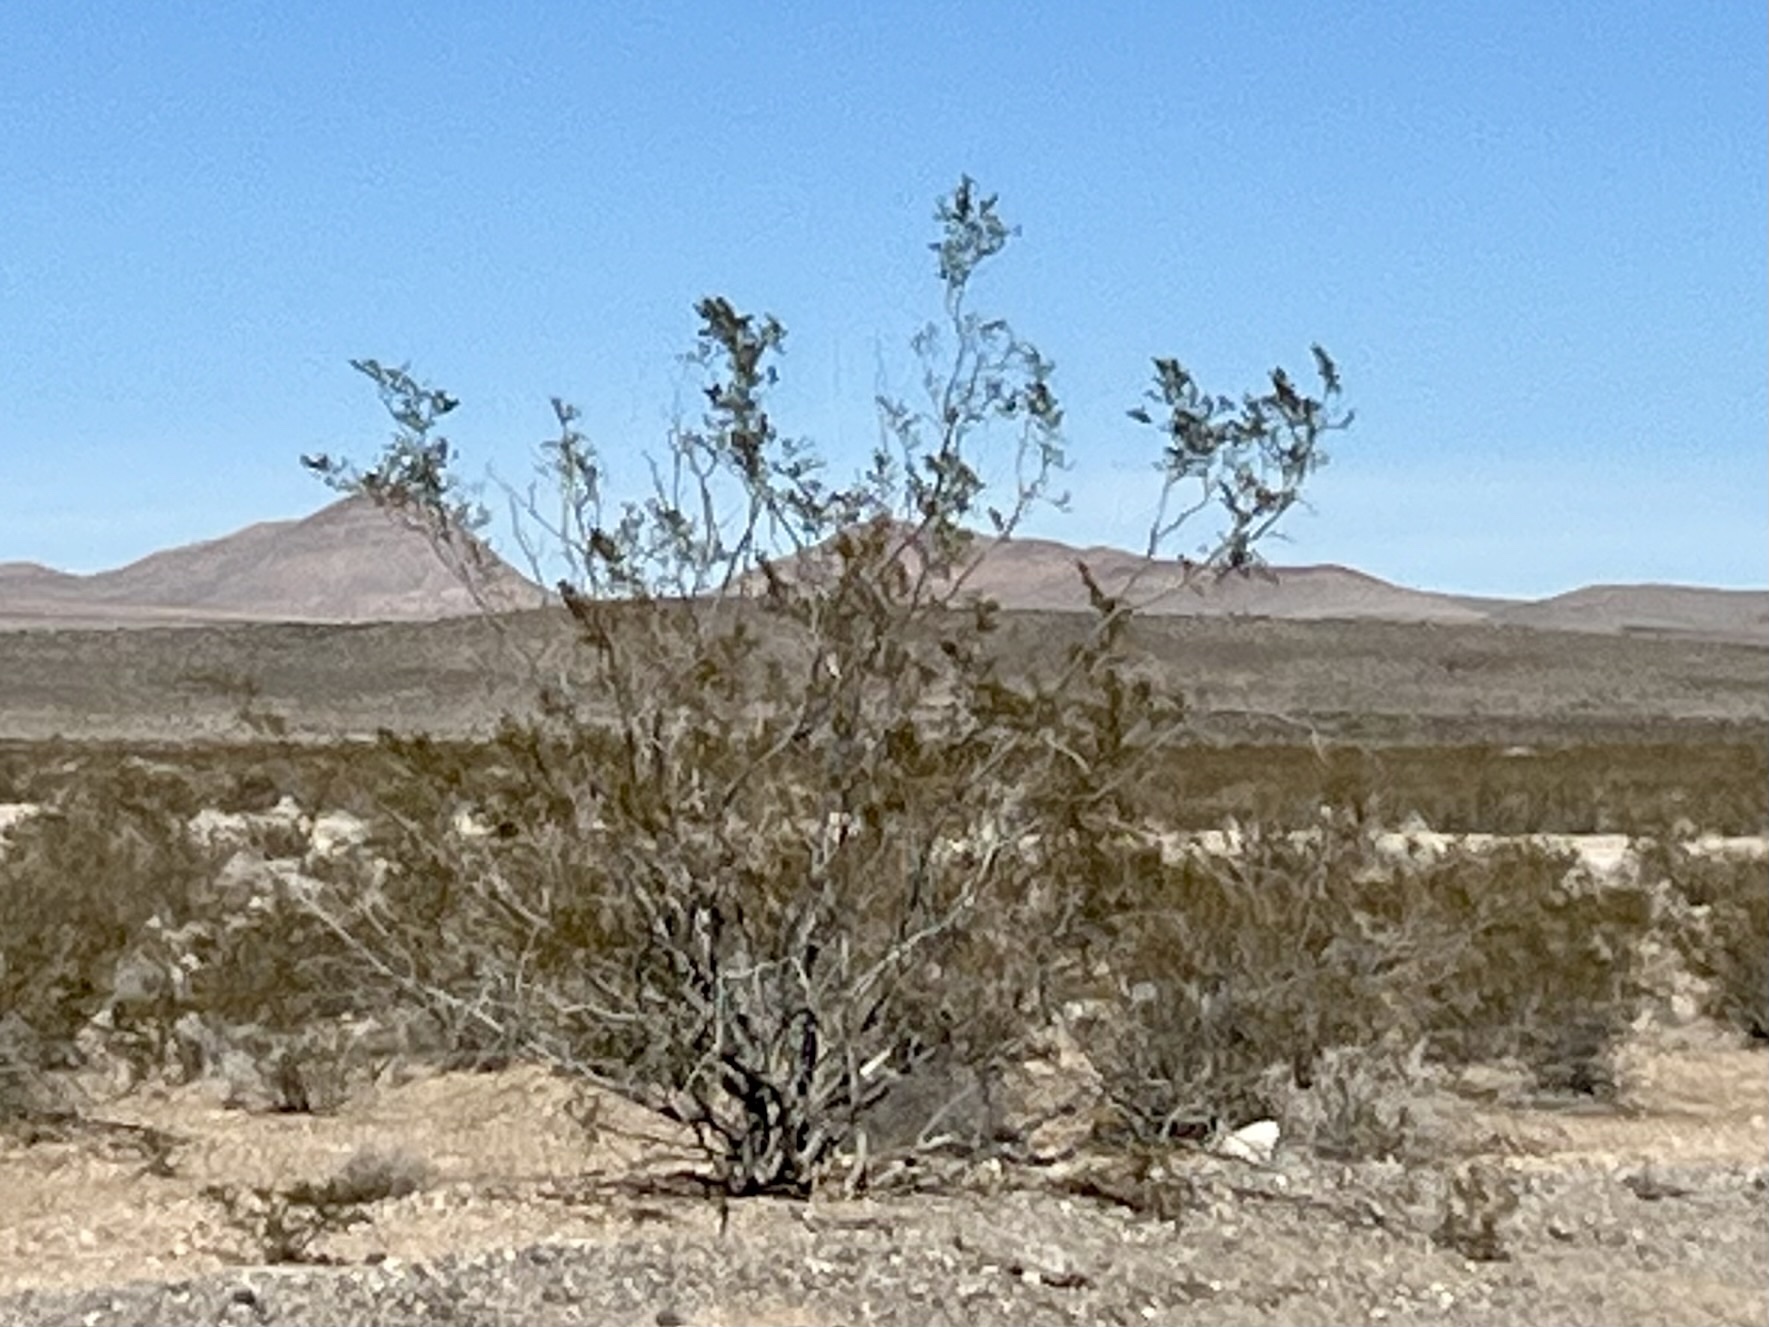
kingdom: Plantae
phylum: Tracheophyta
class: Magnoliopsida
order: Zygophyllales
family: Zygophyllaceae
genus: Larrea
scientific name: Larrea tridentata
